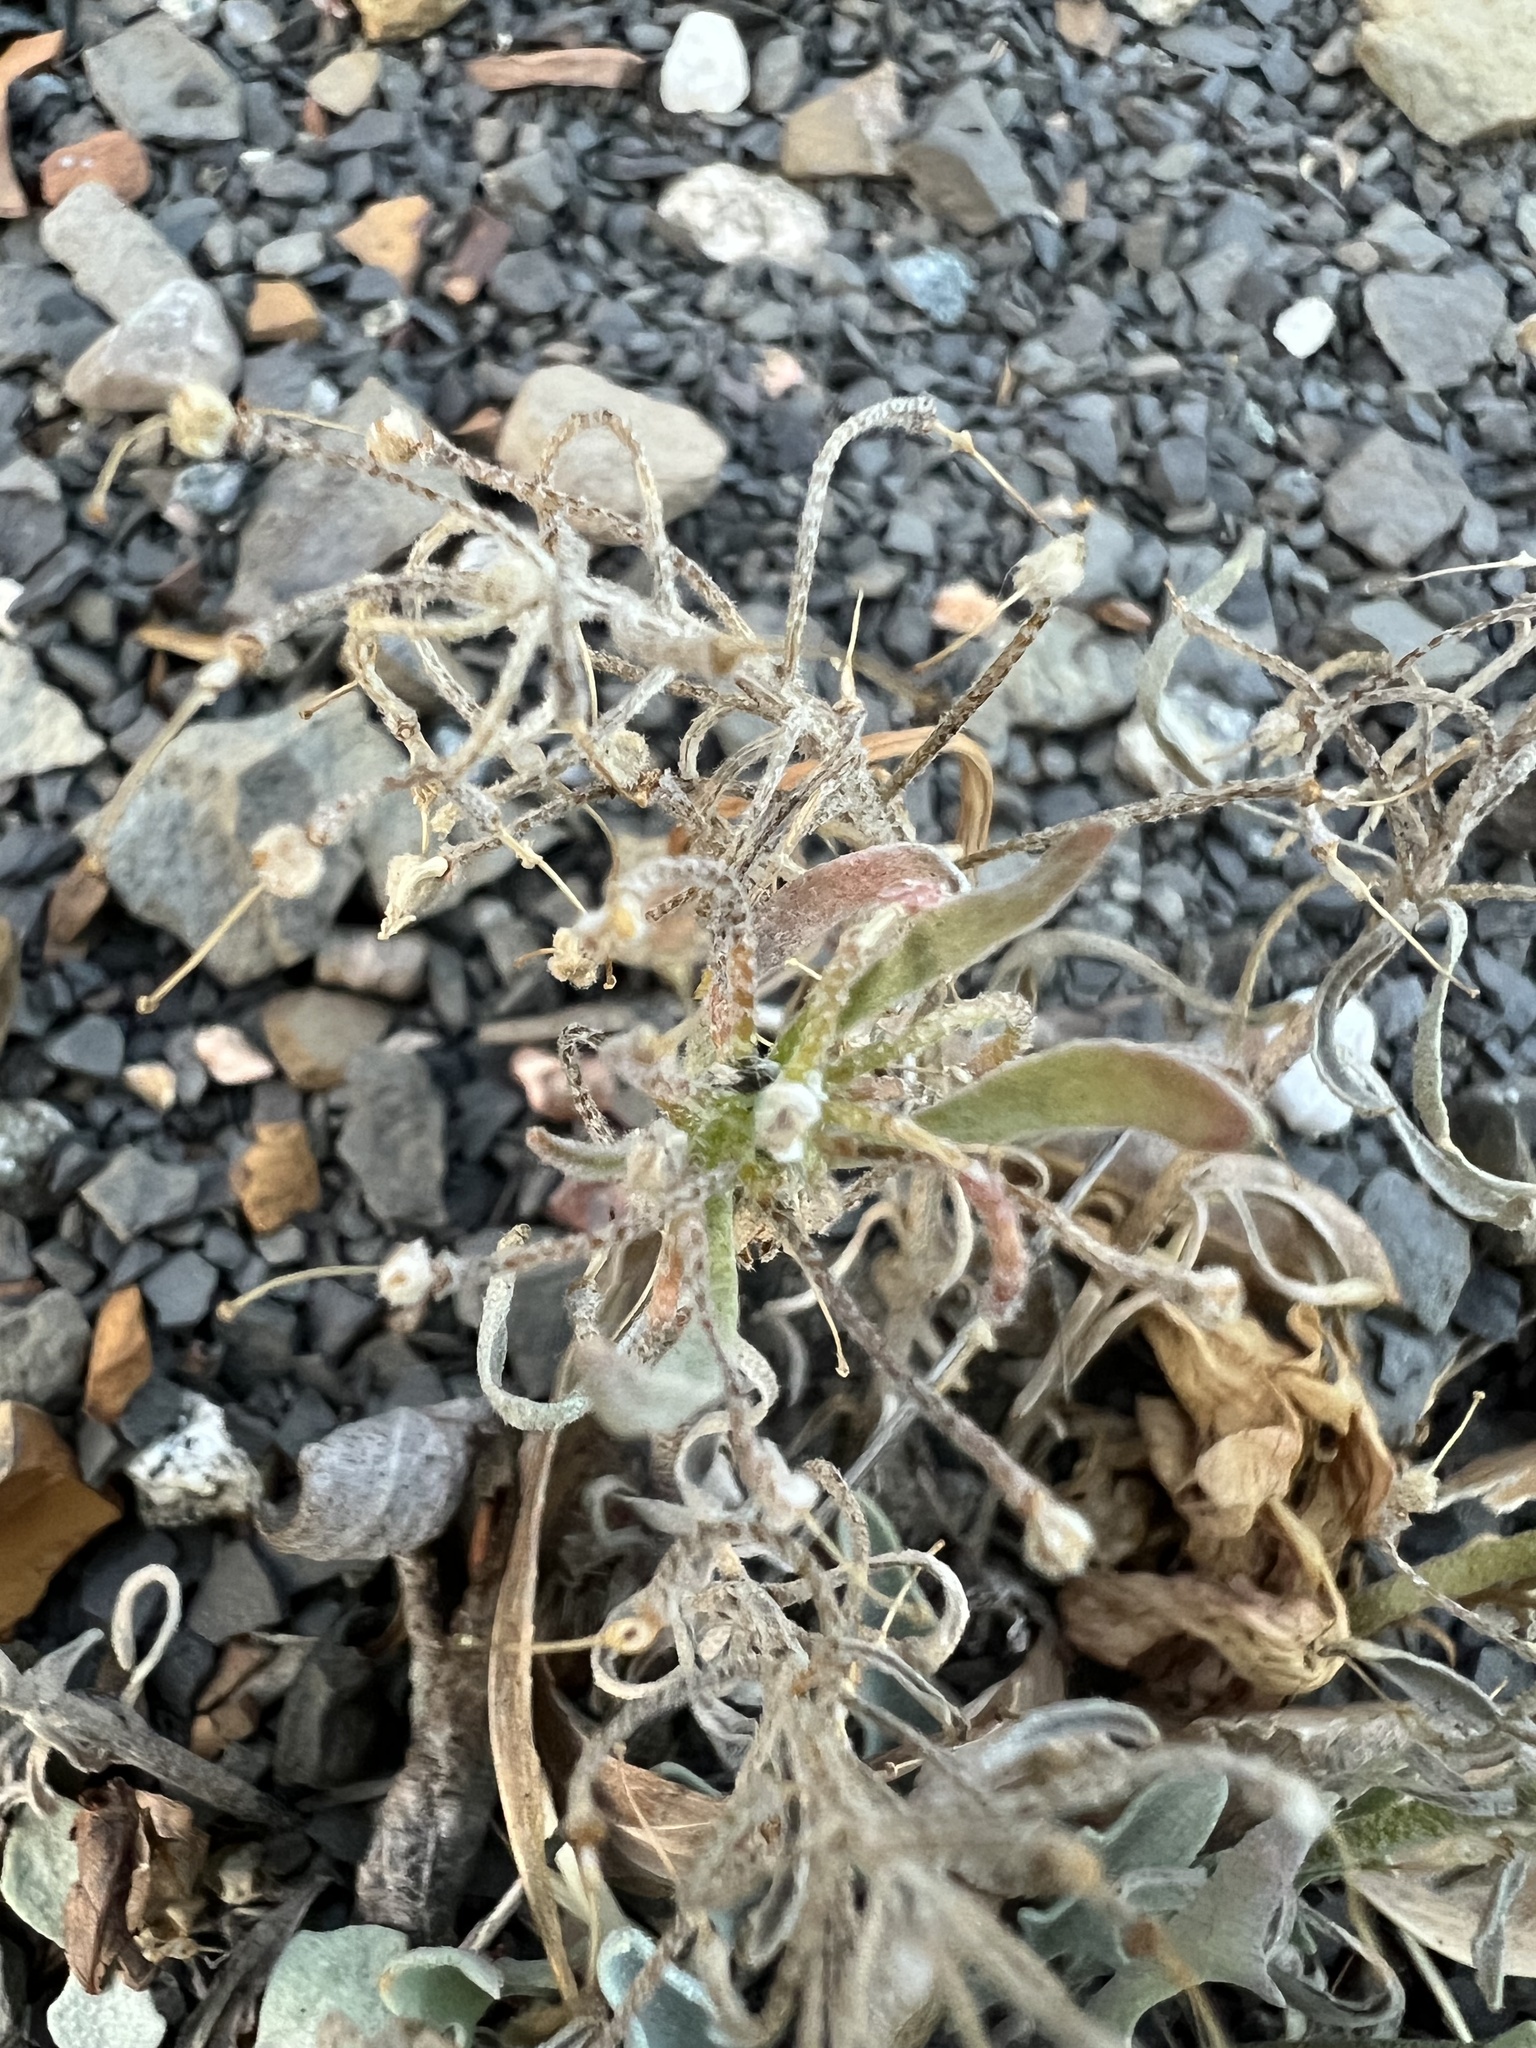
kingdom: Plantae
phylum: Tracheophyta
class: Magnoliopsida
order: Brassicales
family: Brassicaceae
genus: Physaria
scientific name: Physaria floribunda
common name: Point-tip twinpod
